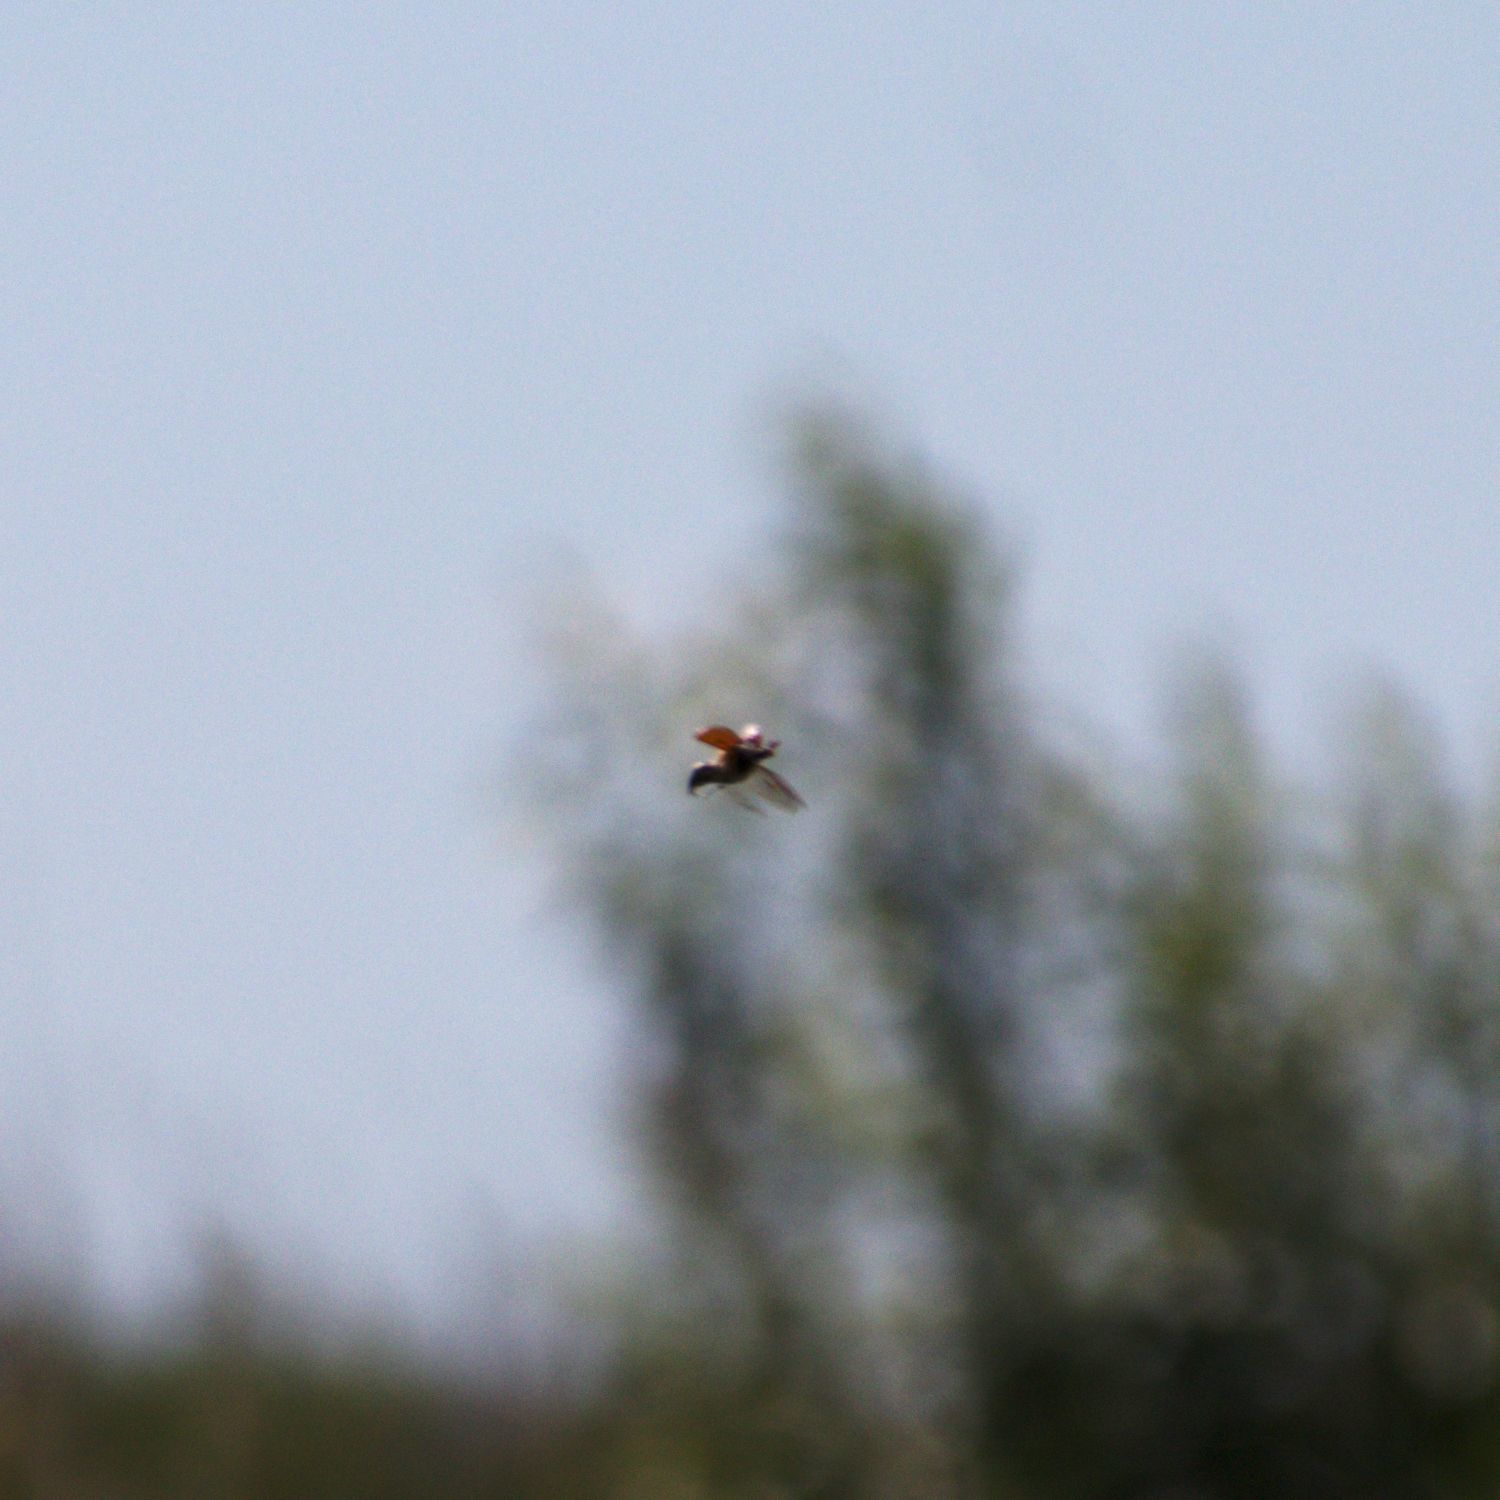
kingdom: Animalia
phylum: Arthropoda
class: Insecta
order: Coleoptera
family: Scarabaeidae
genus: Melolontha
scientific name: Melolontha hippocastani
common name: Chestnut cockchafer
